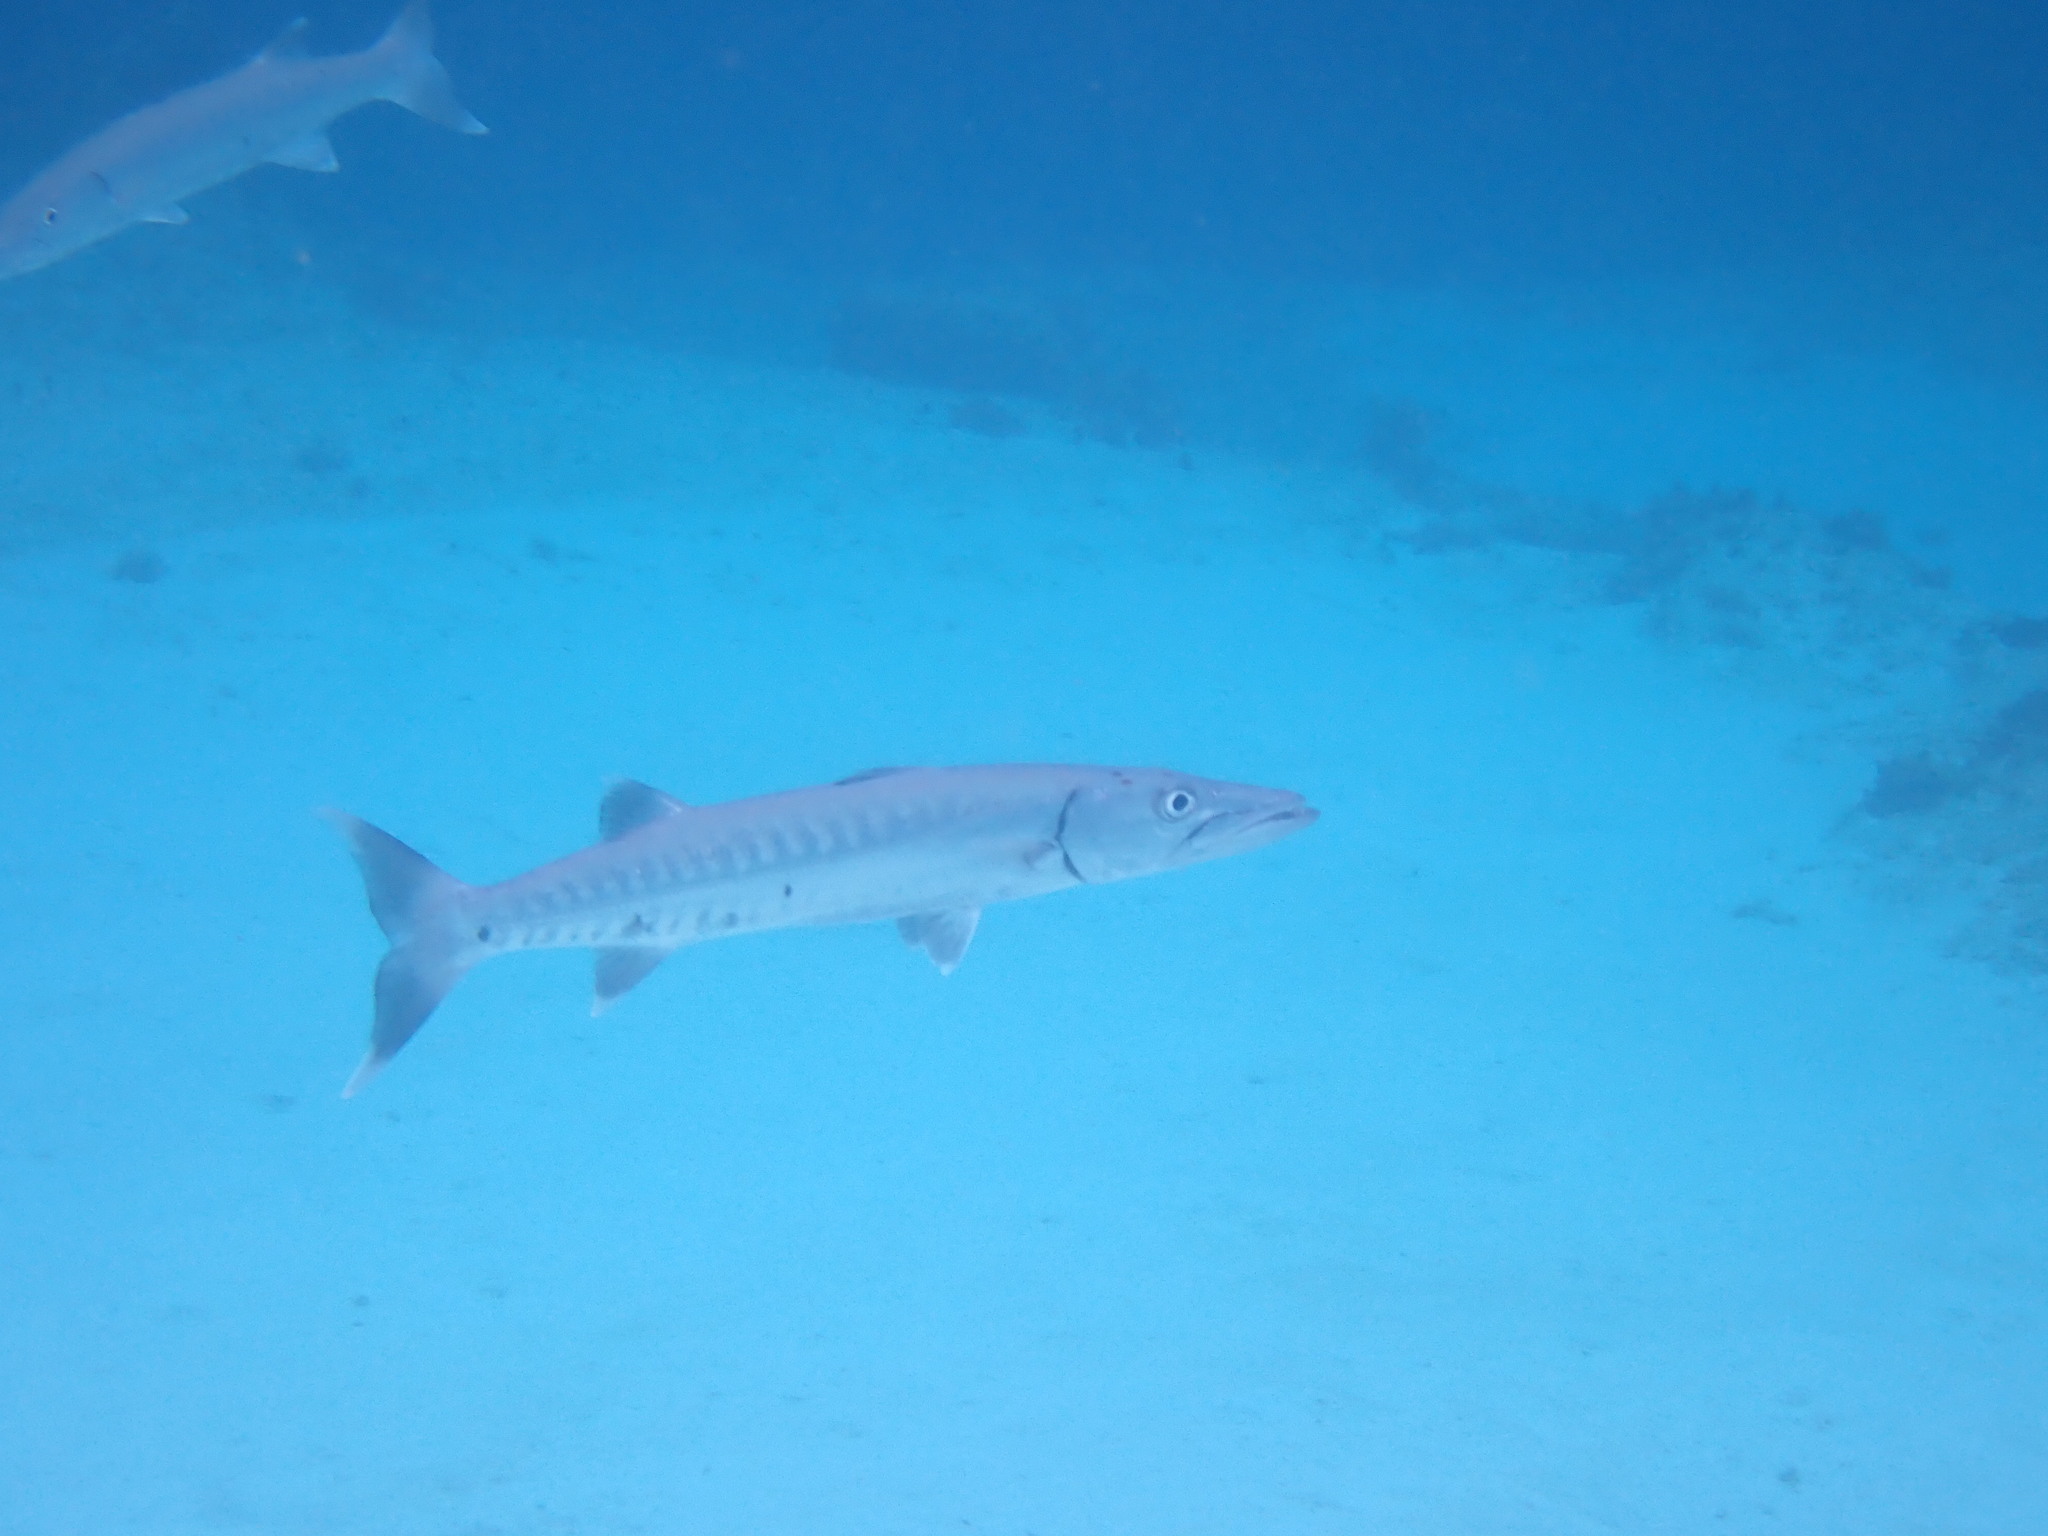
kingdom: Animalia
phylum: Chordata
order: Perciformes
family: Sphyraenidae
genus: Sphyraena
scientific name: Sphyraena barracuda
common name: Great barracuda
